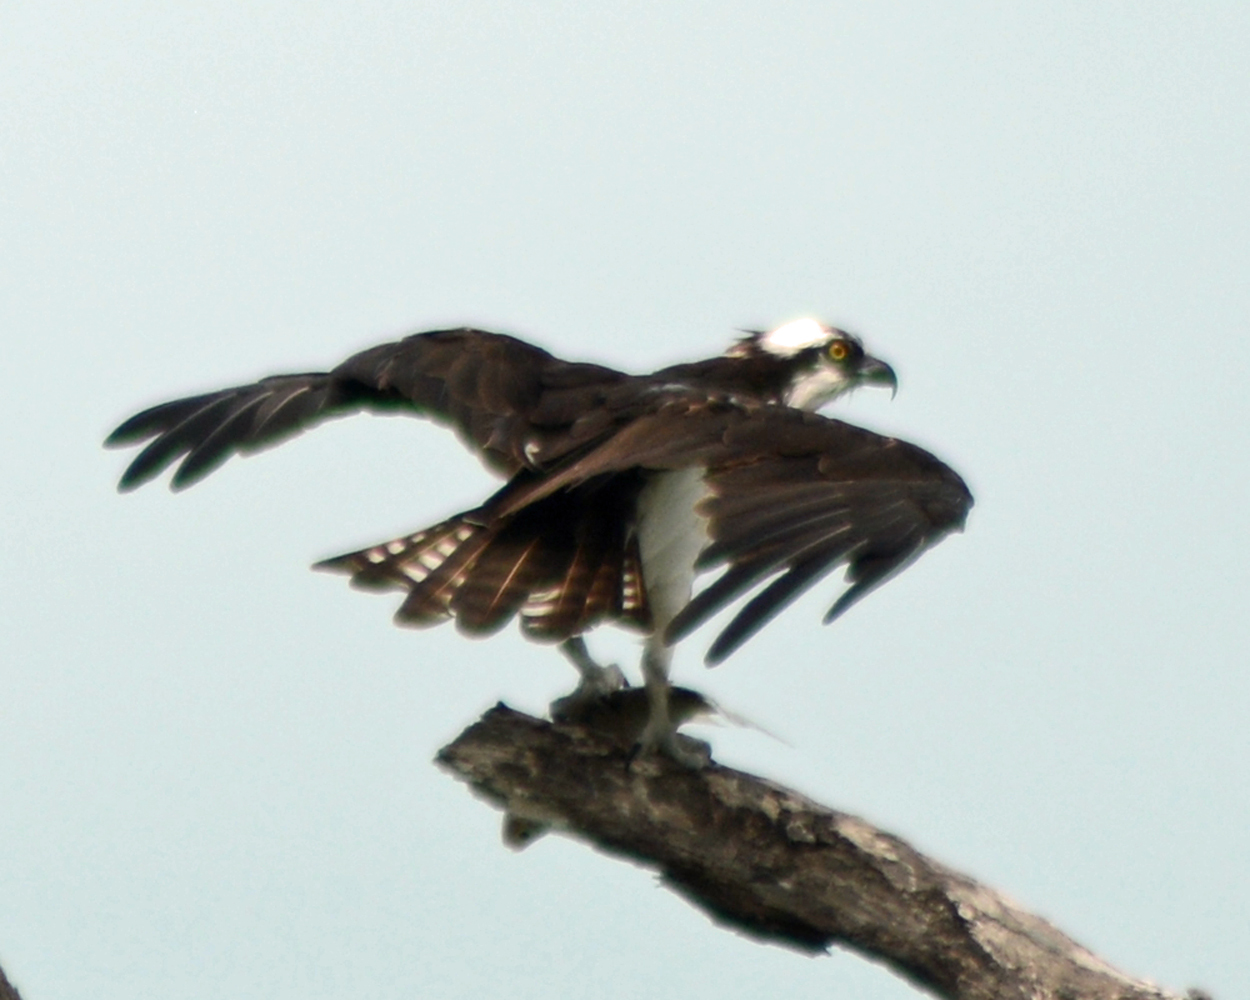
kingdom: Animalia
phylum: Chordata
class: Aves
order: Accipitriformes
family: Pandionidae
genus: Pandion
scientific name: Pandion haliaetus
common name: Osprey
